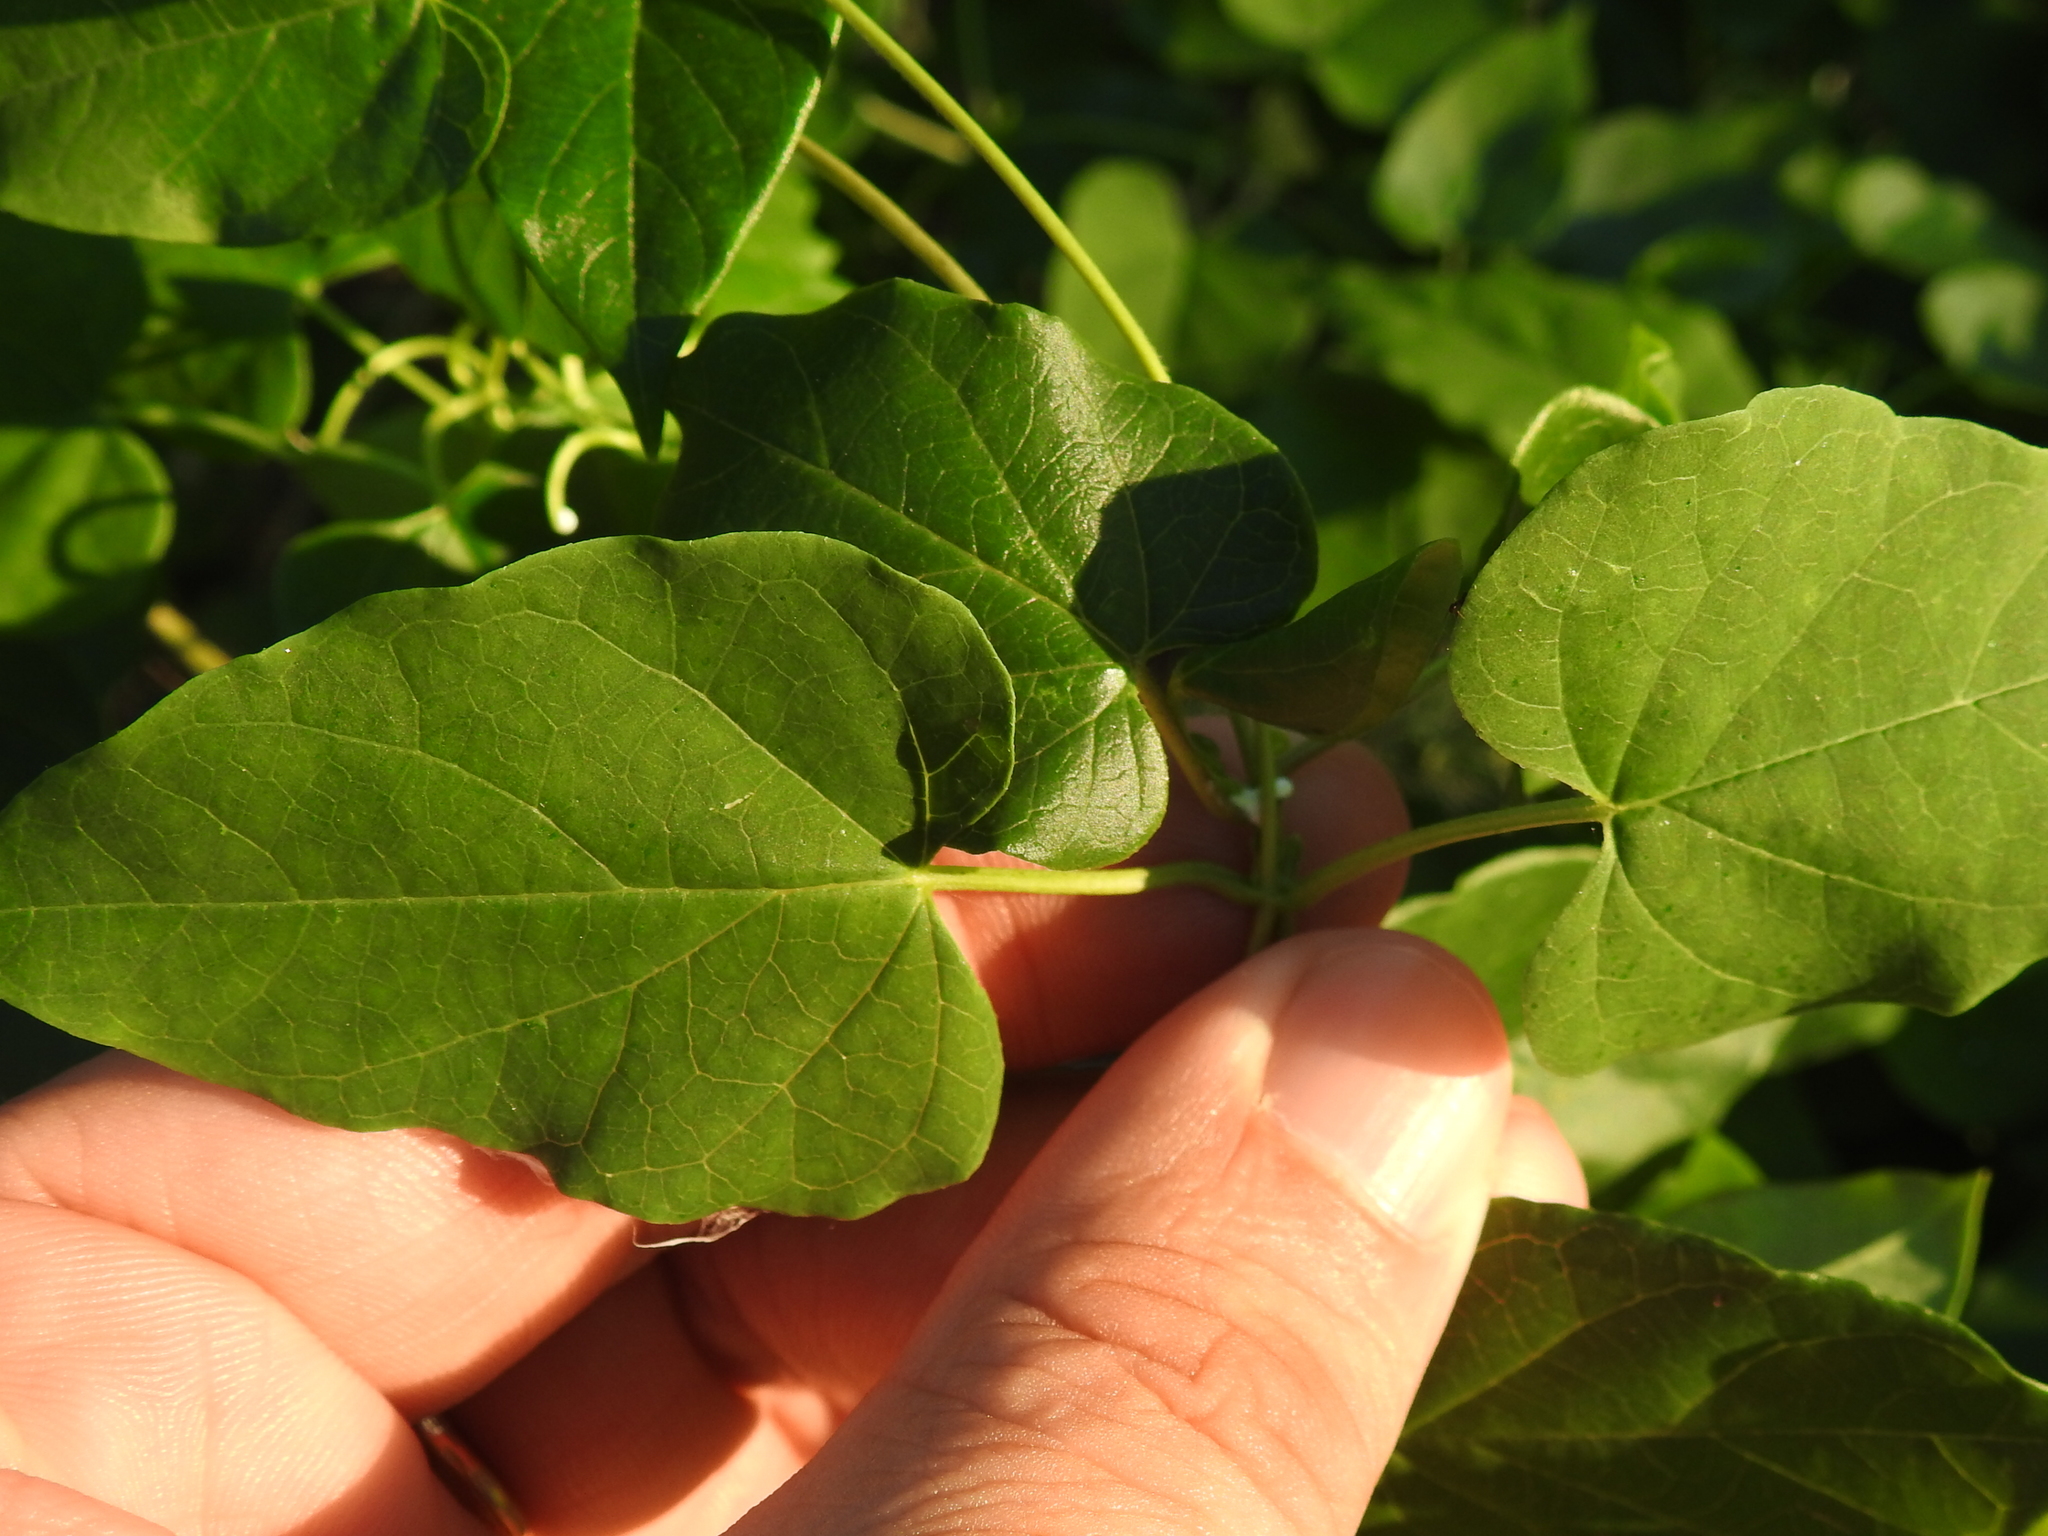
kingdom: Plantae
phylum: Tracheophyta
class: Magnoliopsida
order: Gentianales
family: Apocynaceae
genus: Cynanchum
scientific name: Cynanchum racemosum
